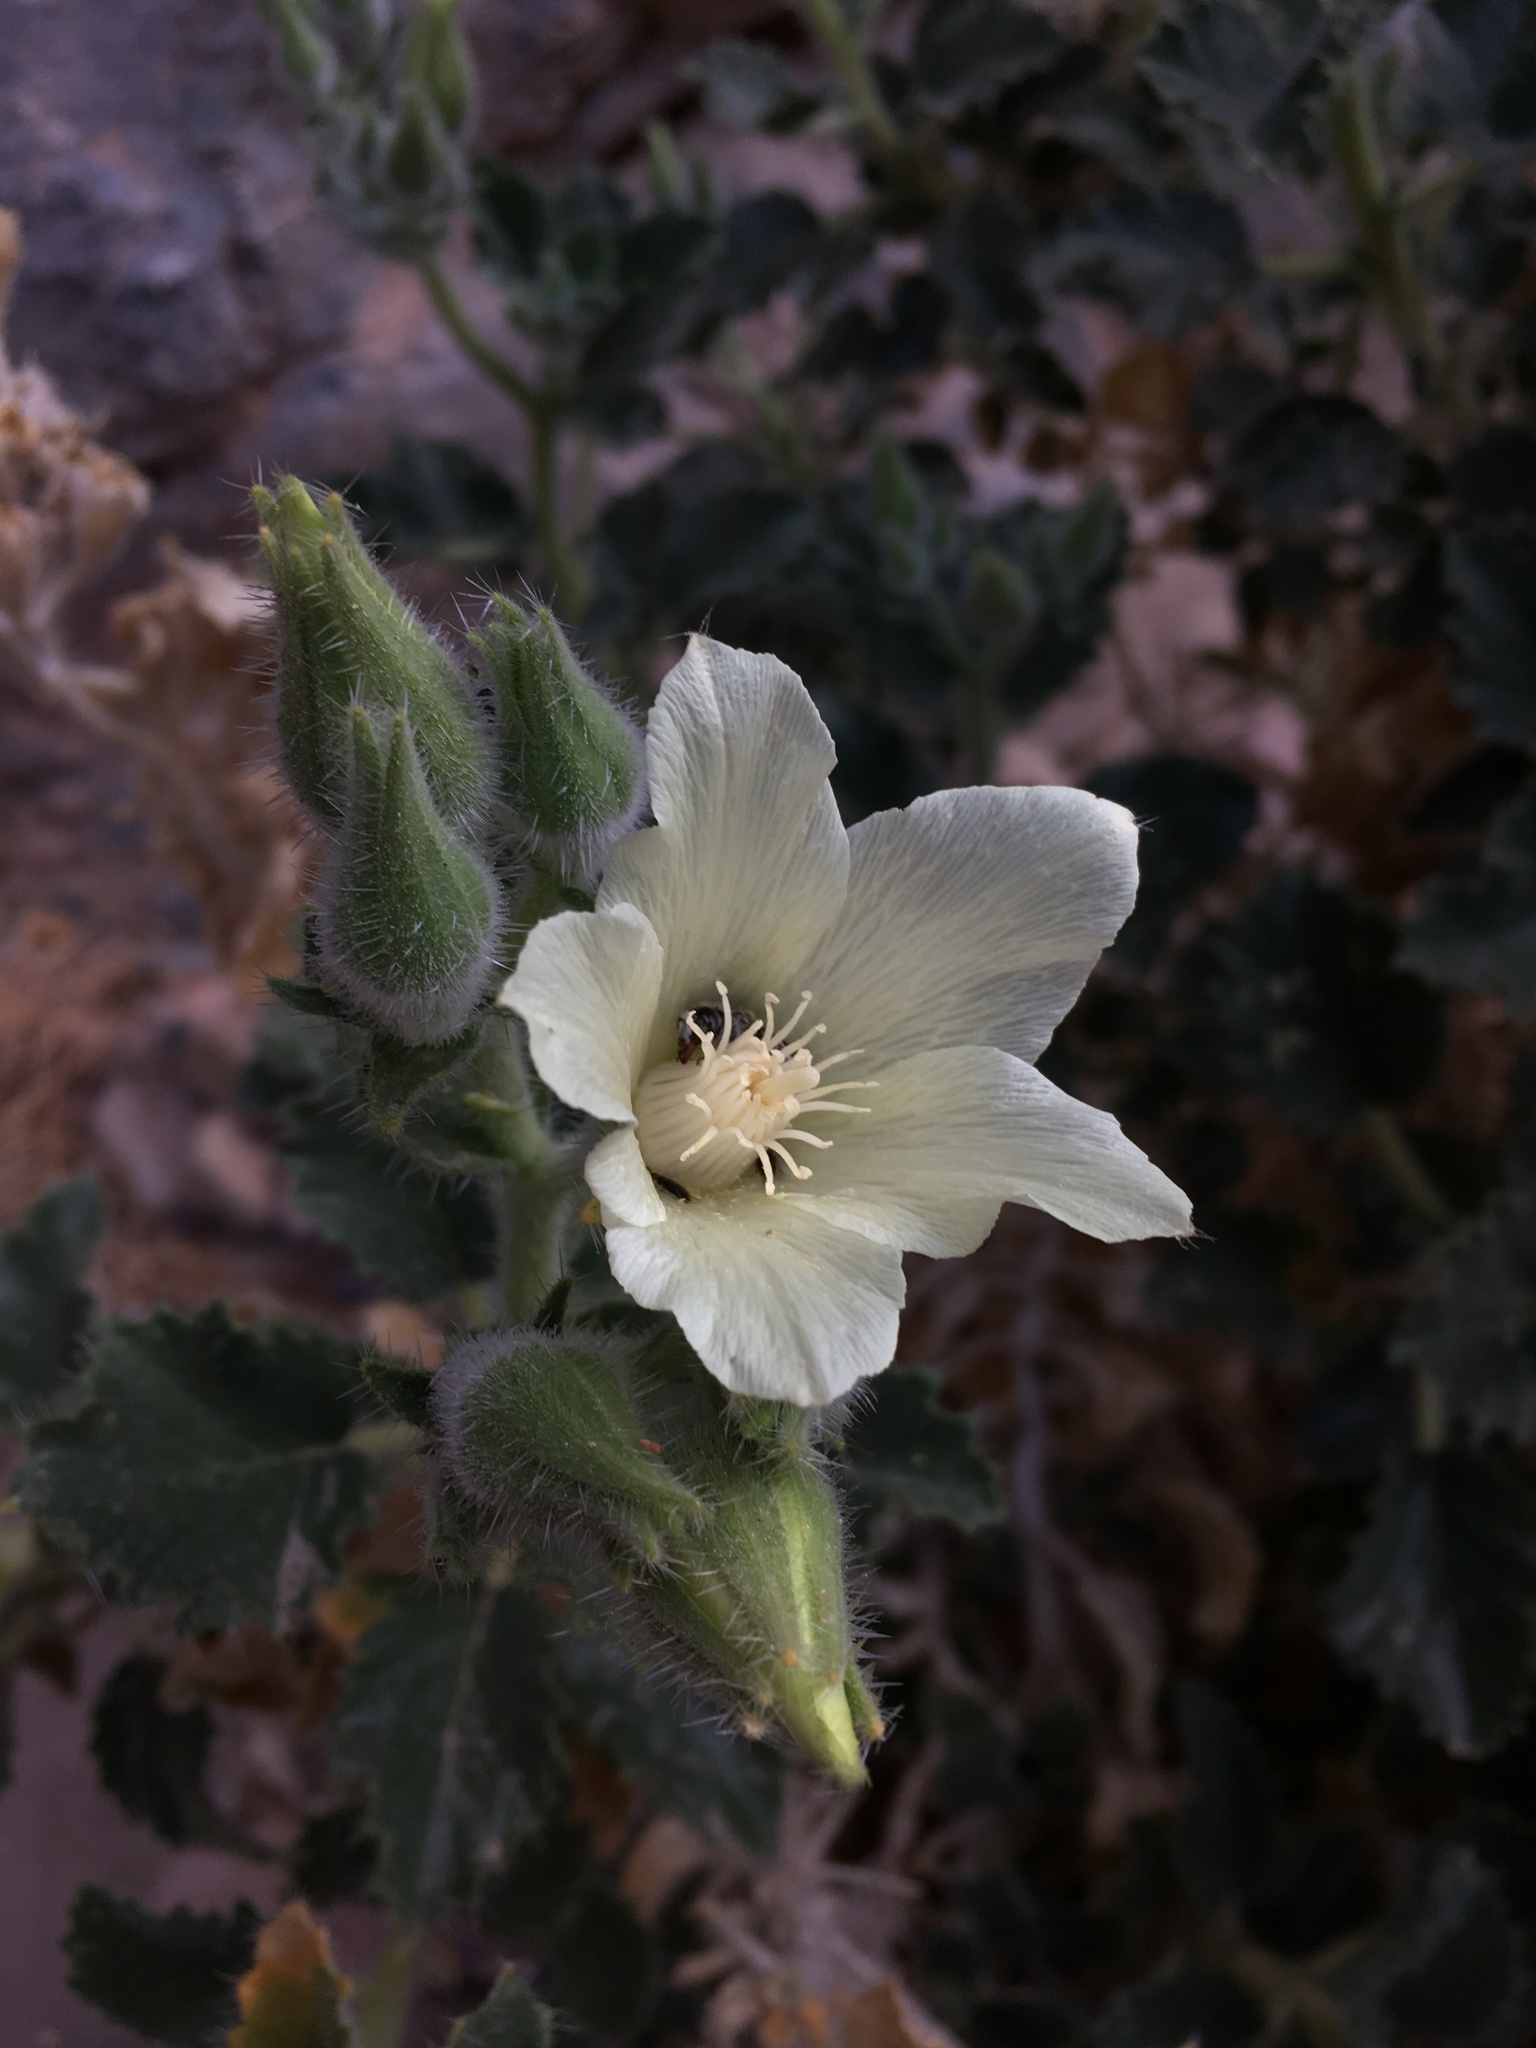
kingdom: Plantae
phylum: Tracheophyta
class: Magnoliopsida
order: Cornales
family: Loasaceae
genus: Eucnide
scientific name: Eucnide urens
